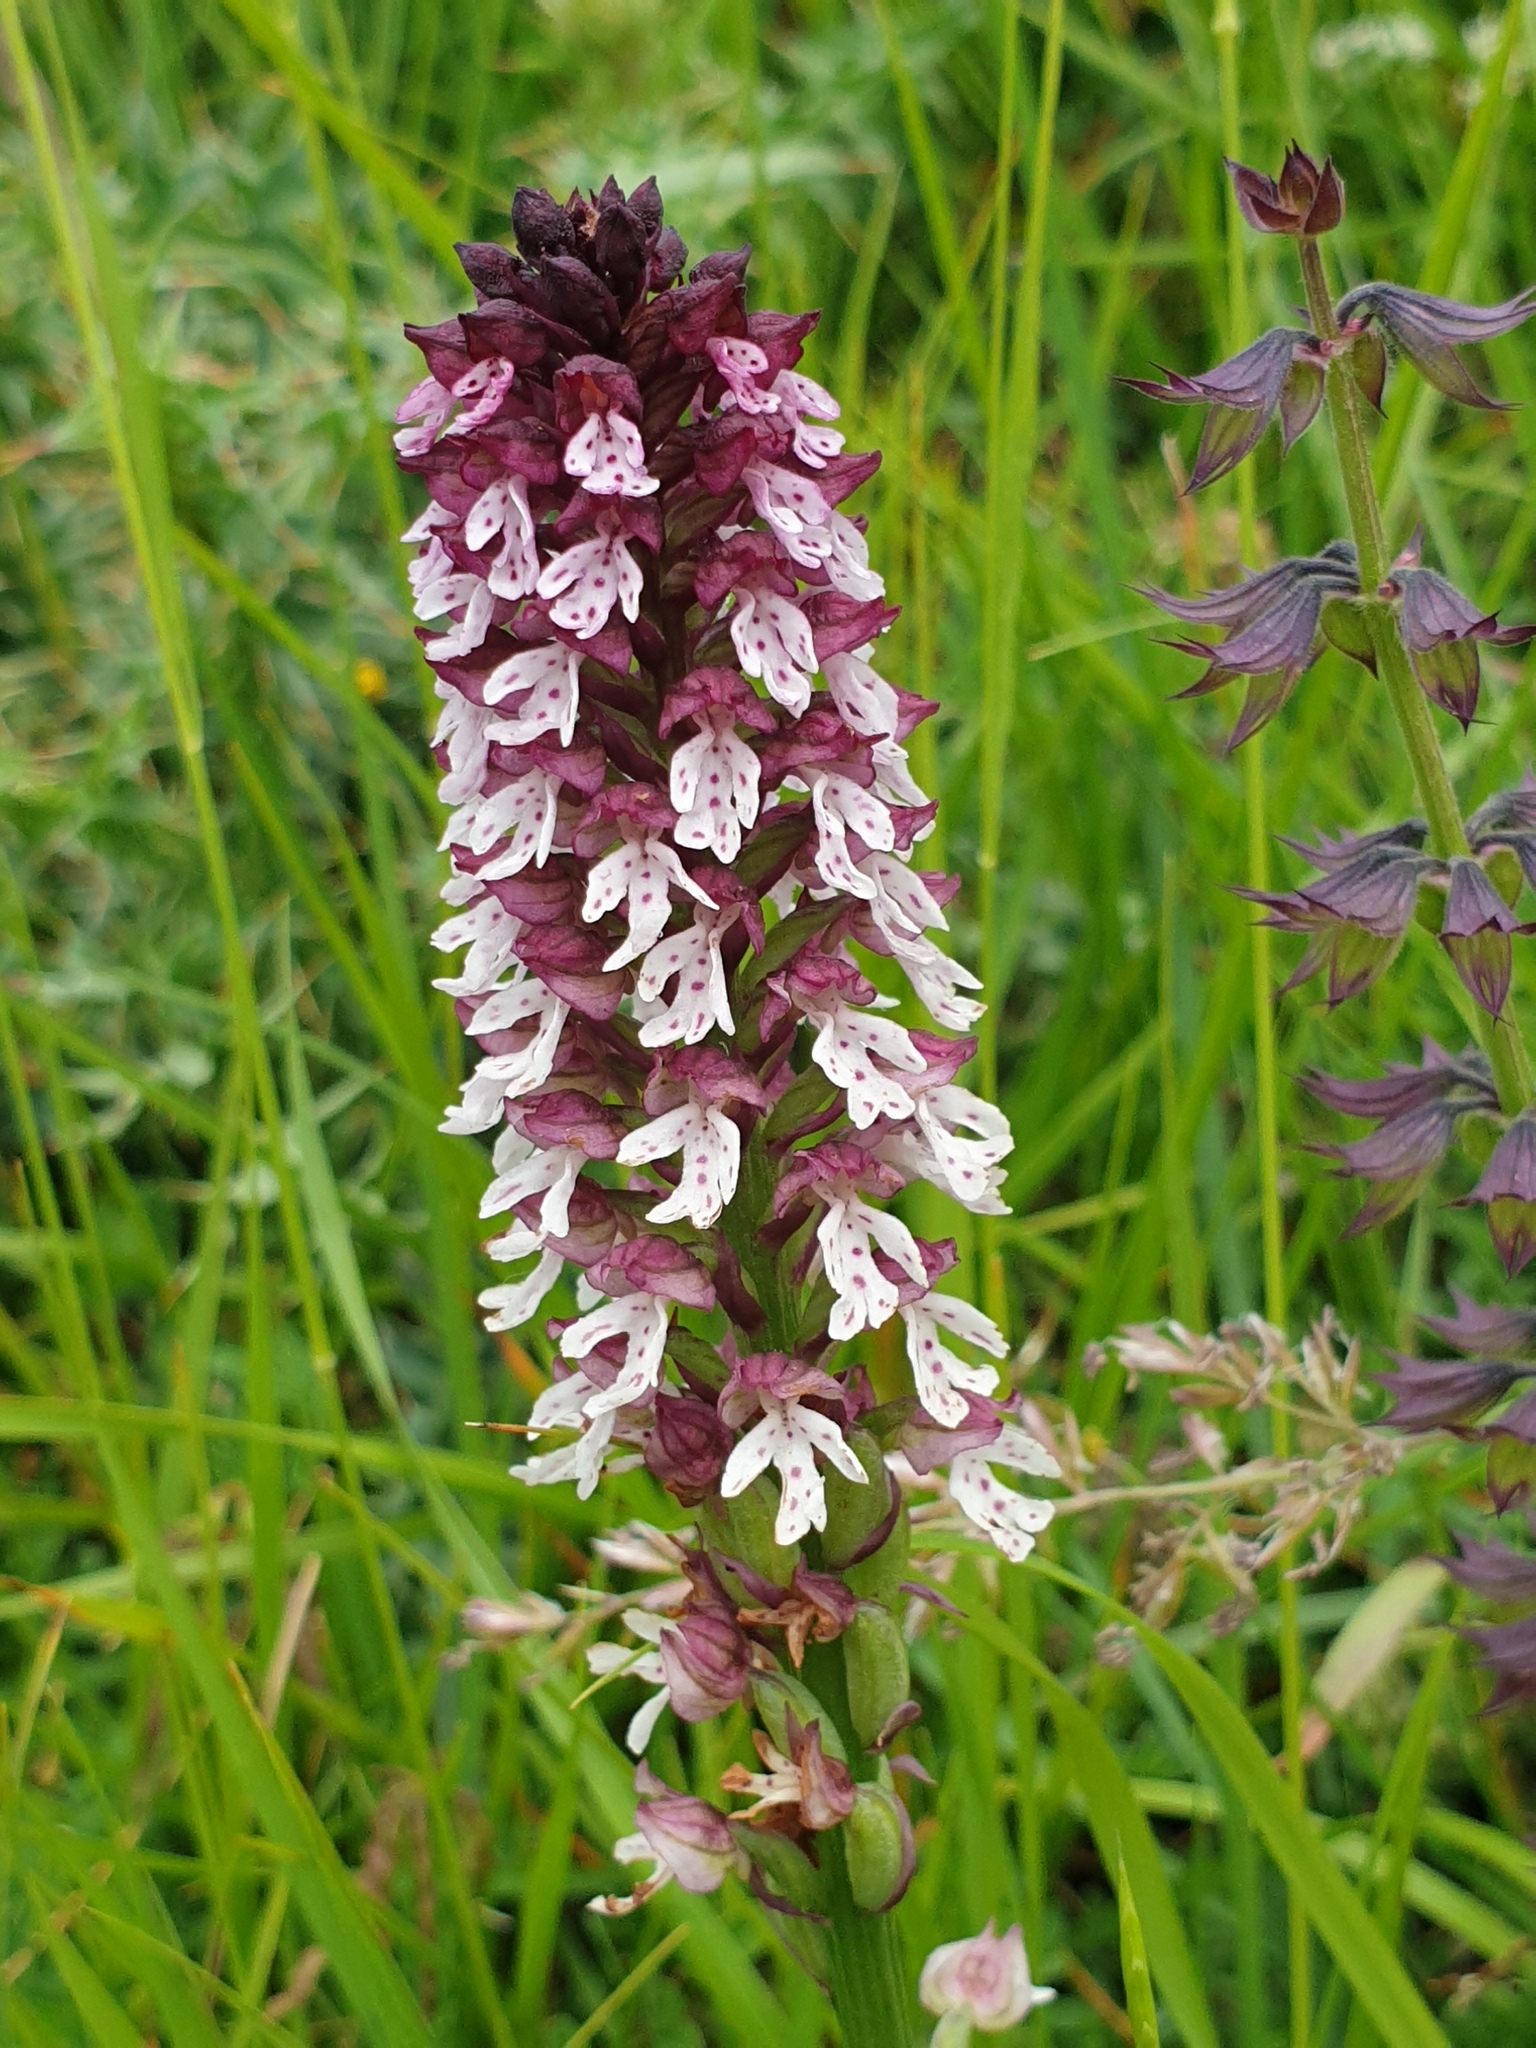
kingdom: Plantae
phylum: Tracheophyta
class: Liliopsida
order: Asparagales
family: Orchidaceae
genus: Neotinea
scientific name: Neotinea ustulata
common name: Burnt orchid
